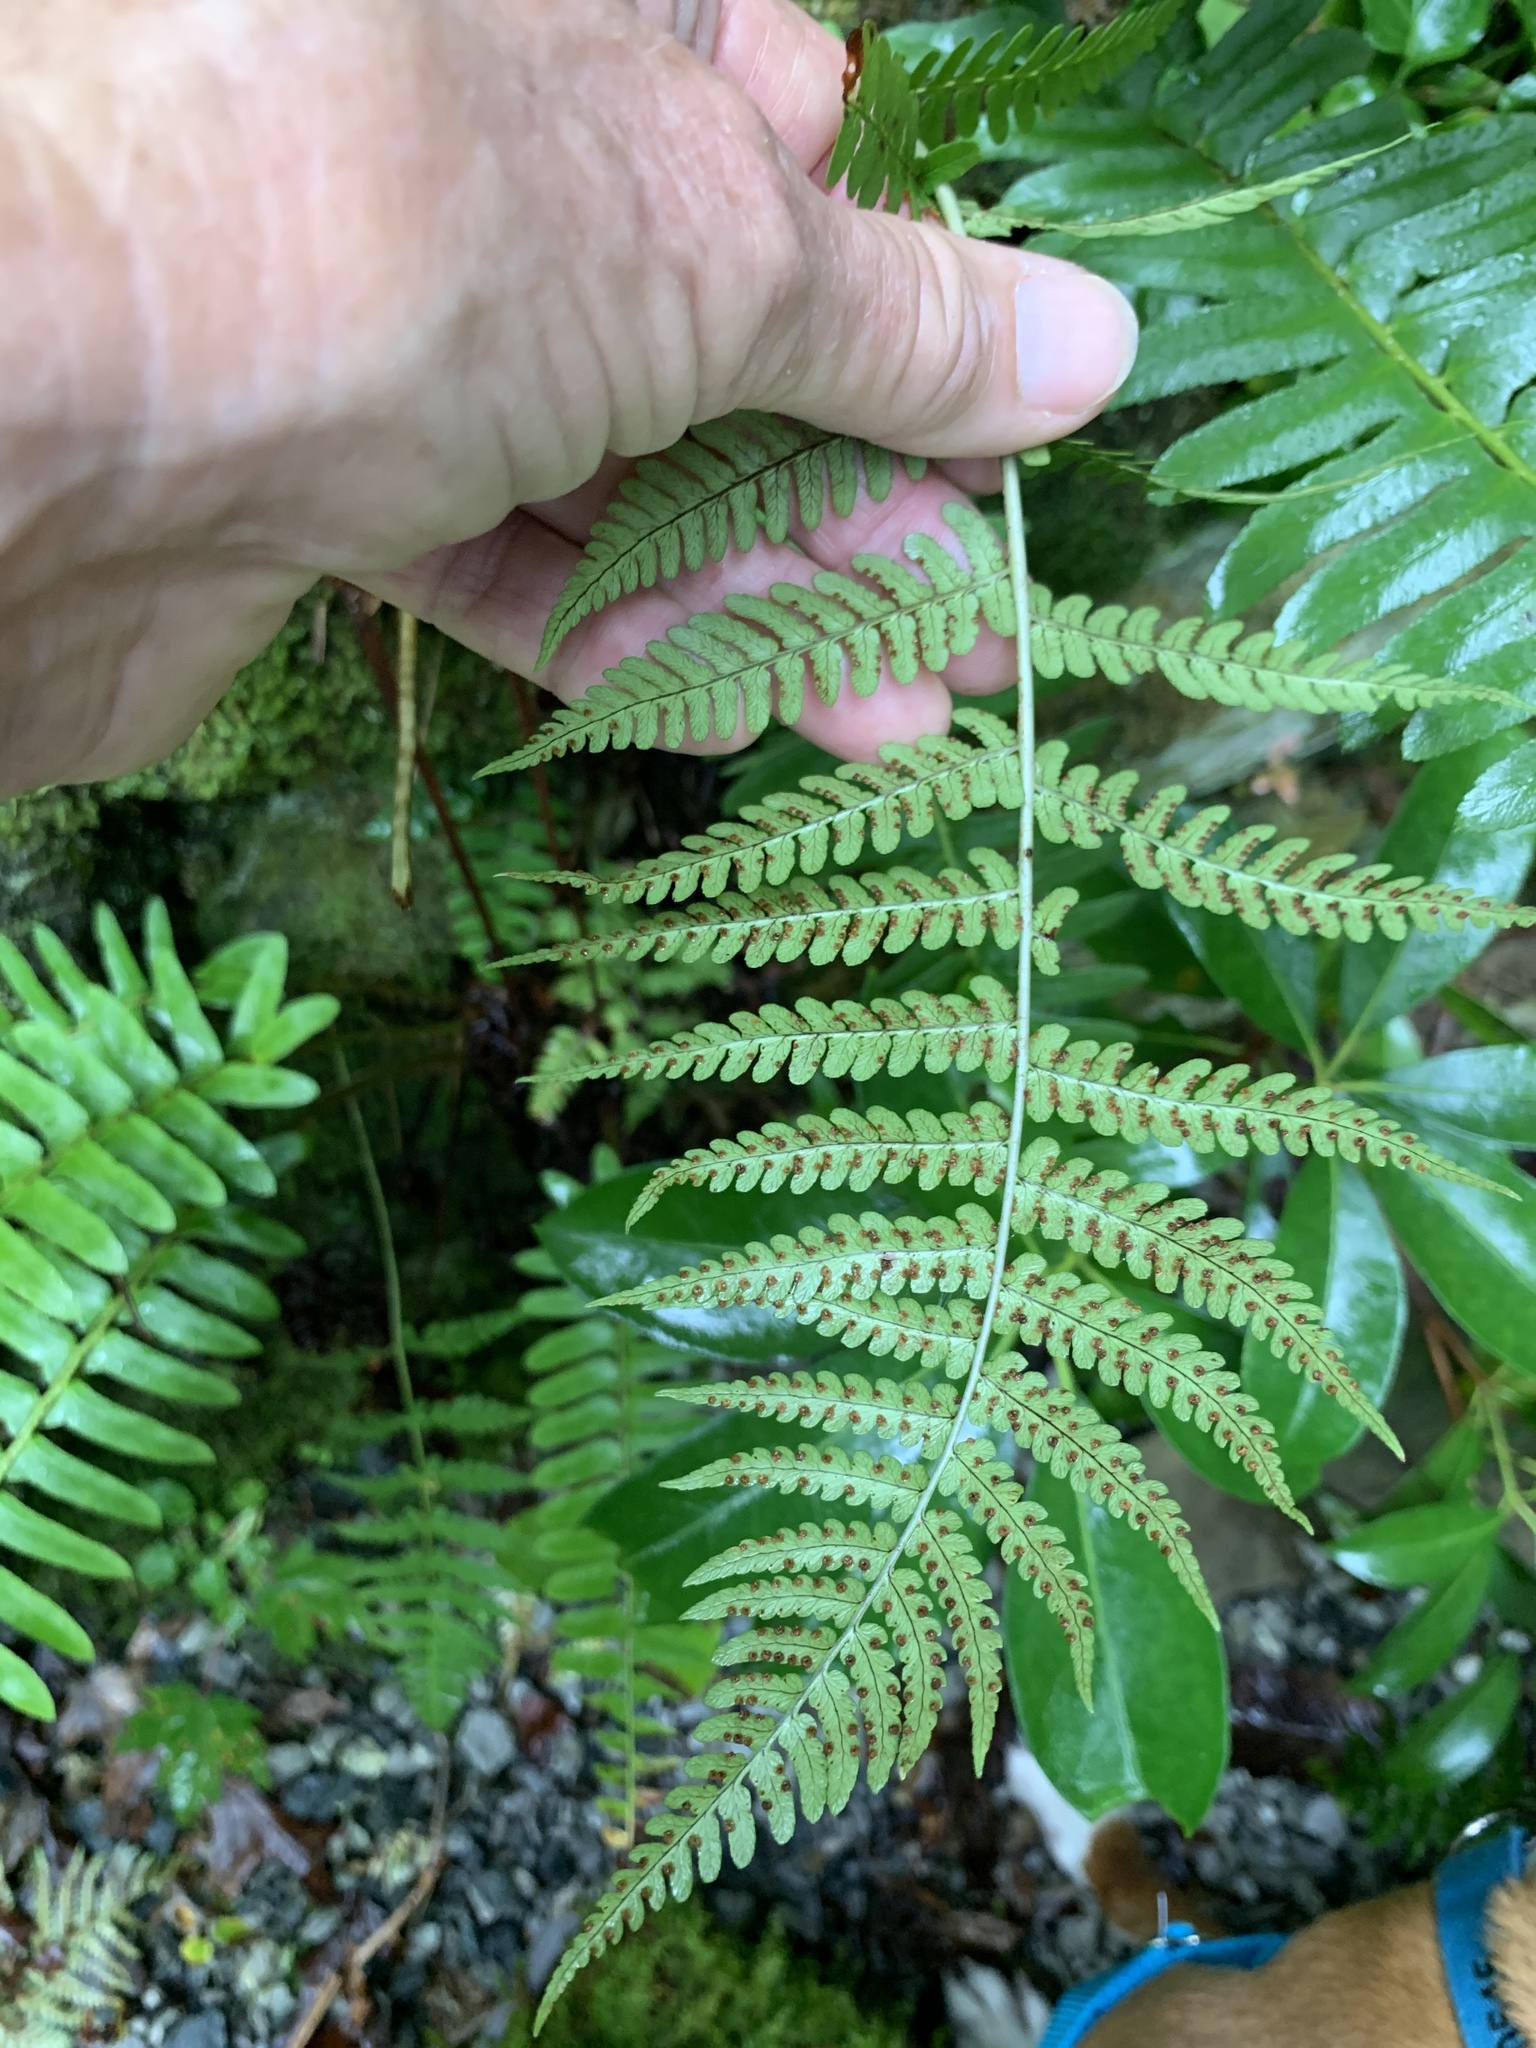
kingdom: Plantae
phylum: Tracheophyta
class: Polypodiopsida
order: Polypodiales
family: Dryopteridaceae
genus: Dryopteris
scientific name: Dryopteris marginalis
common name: Marginal wood fern
